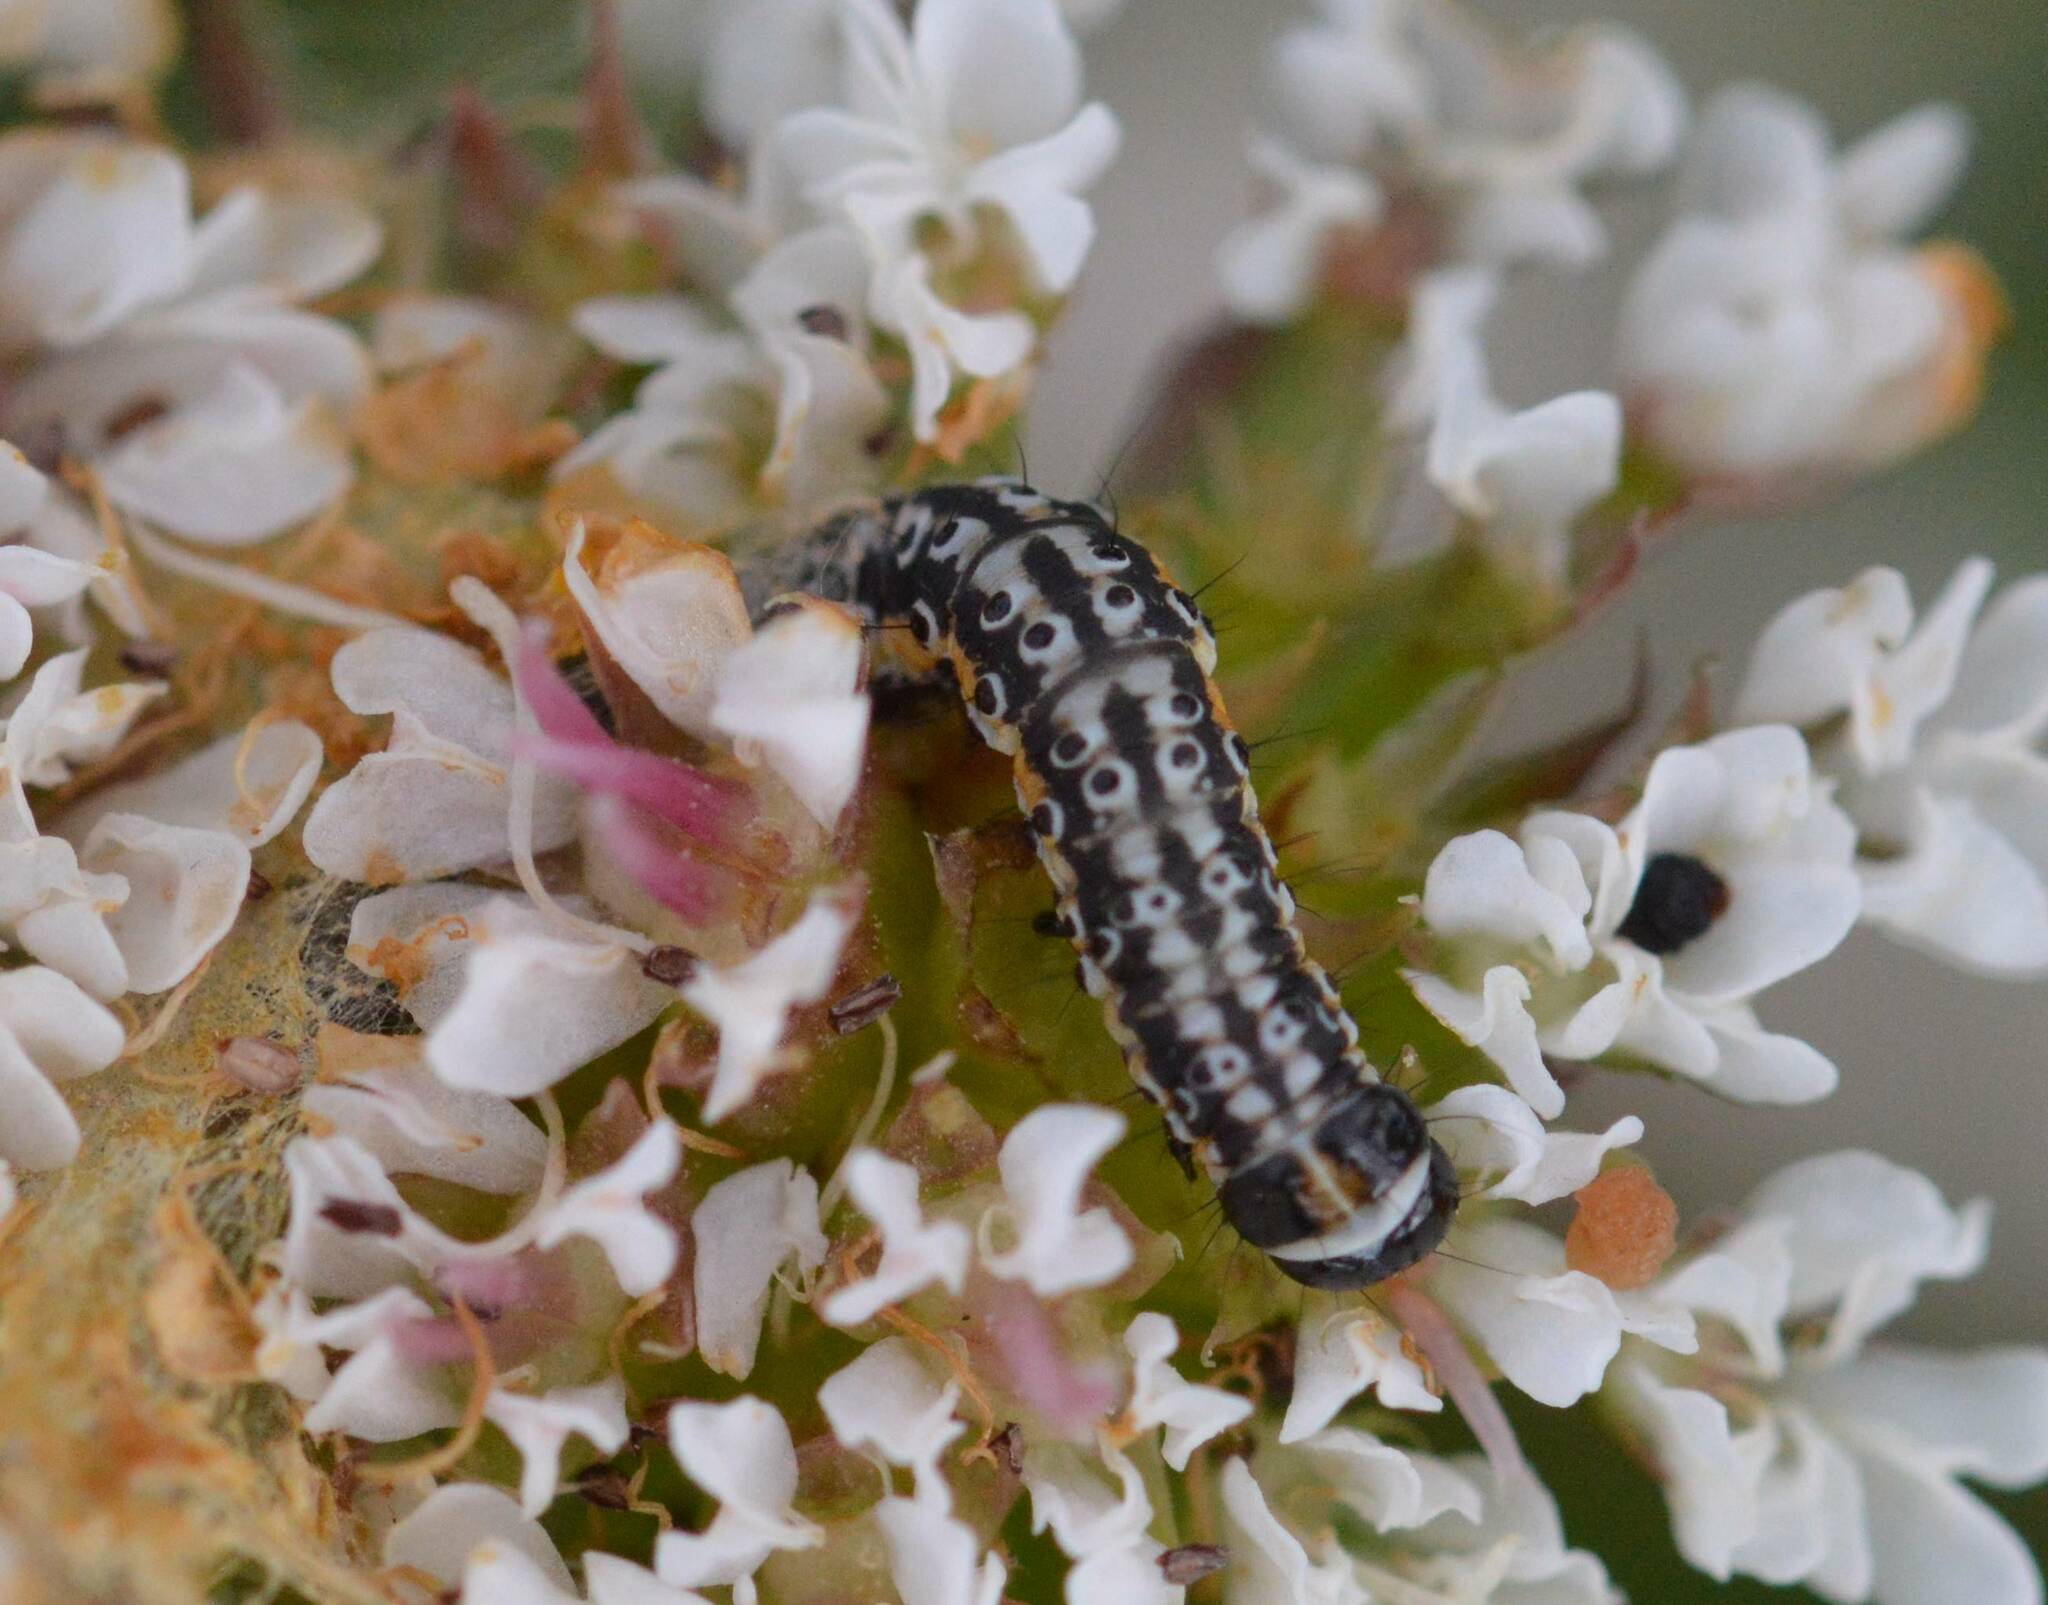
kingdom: Animalia
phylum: Arthropoda
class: Insecta
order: Lepidoptera
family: Depressariidae
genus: Depressaria
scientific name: Depressaria apiella
